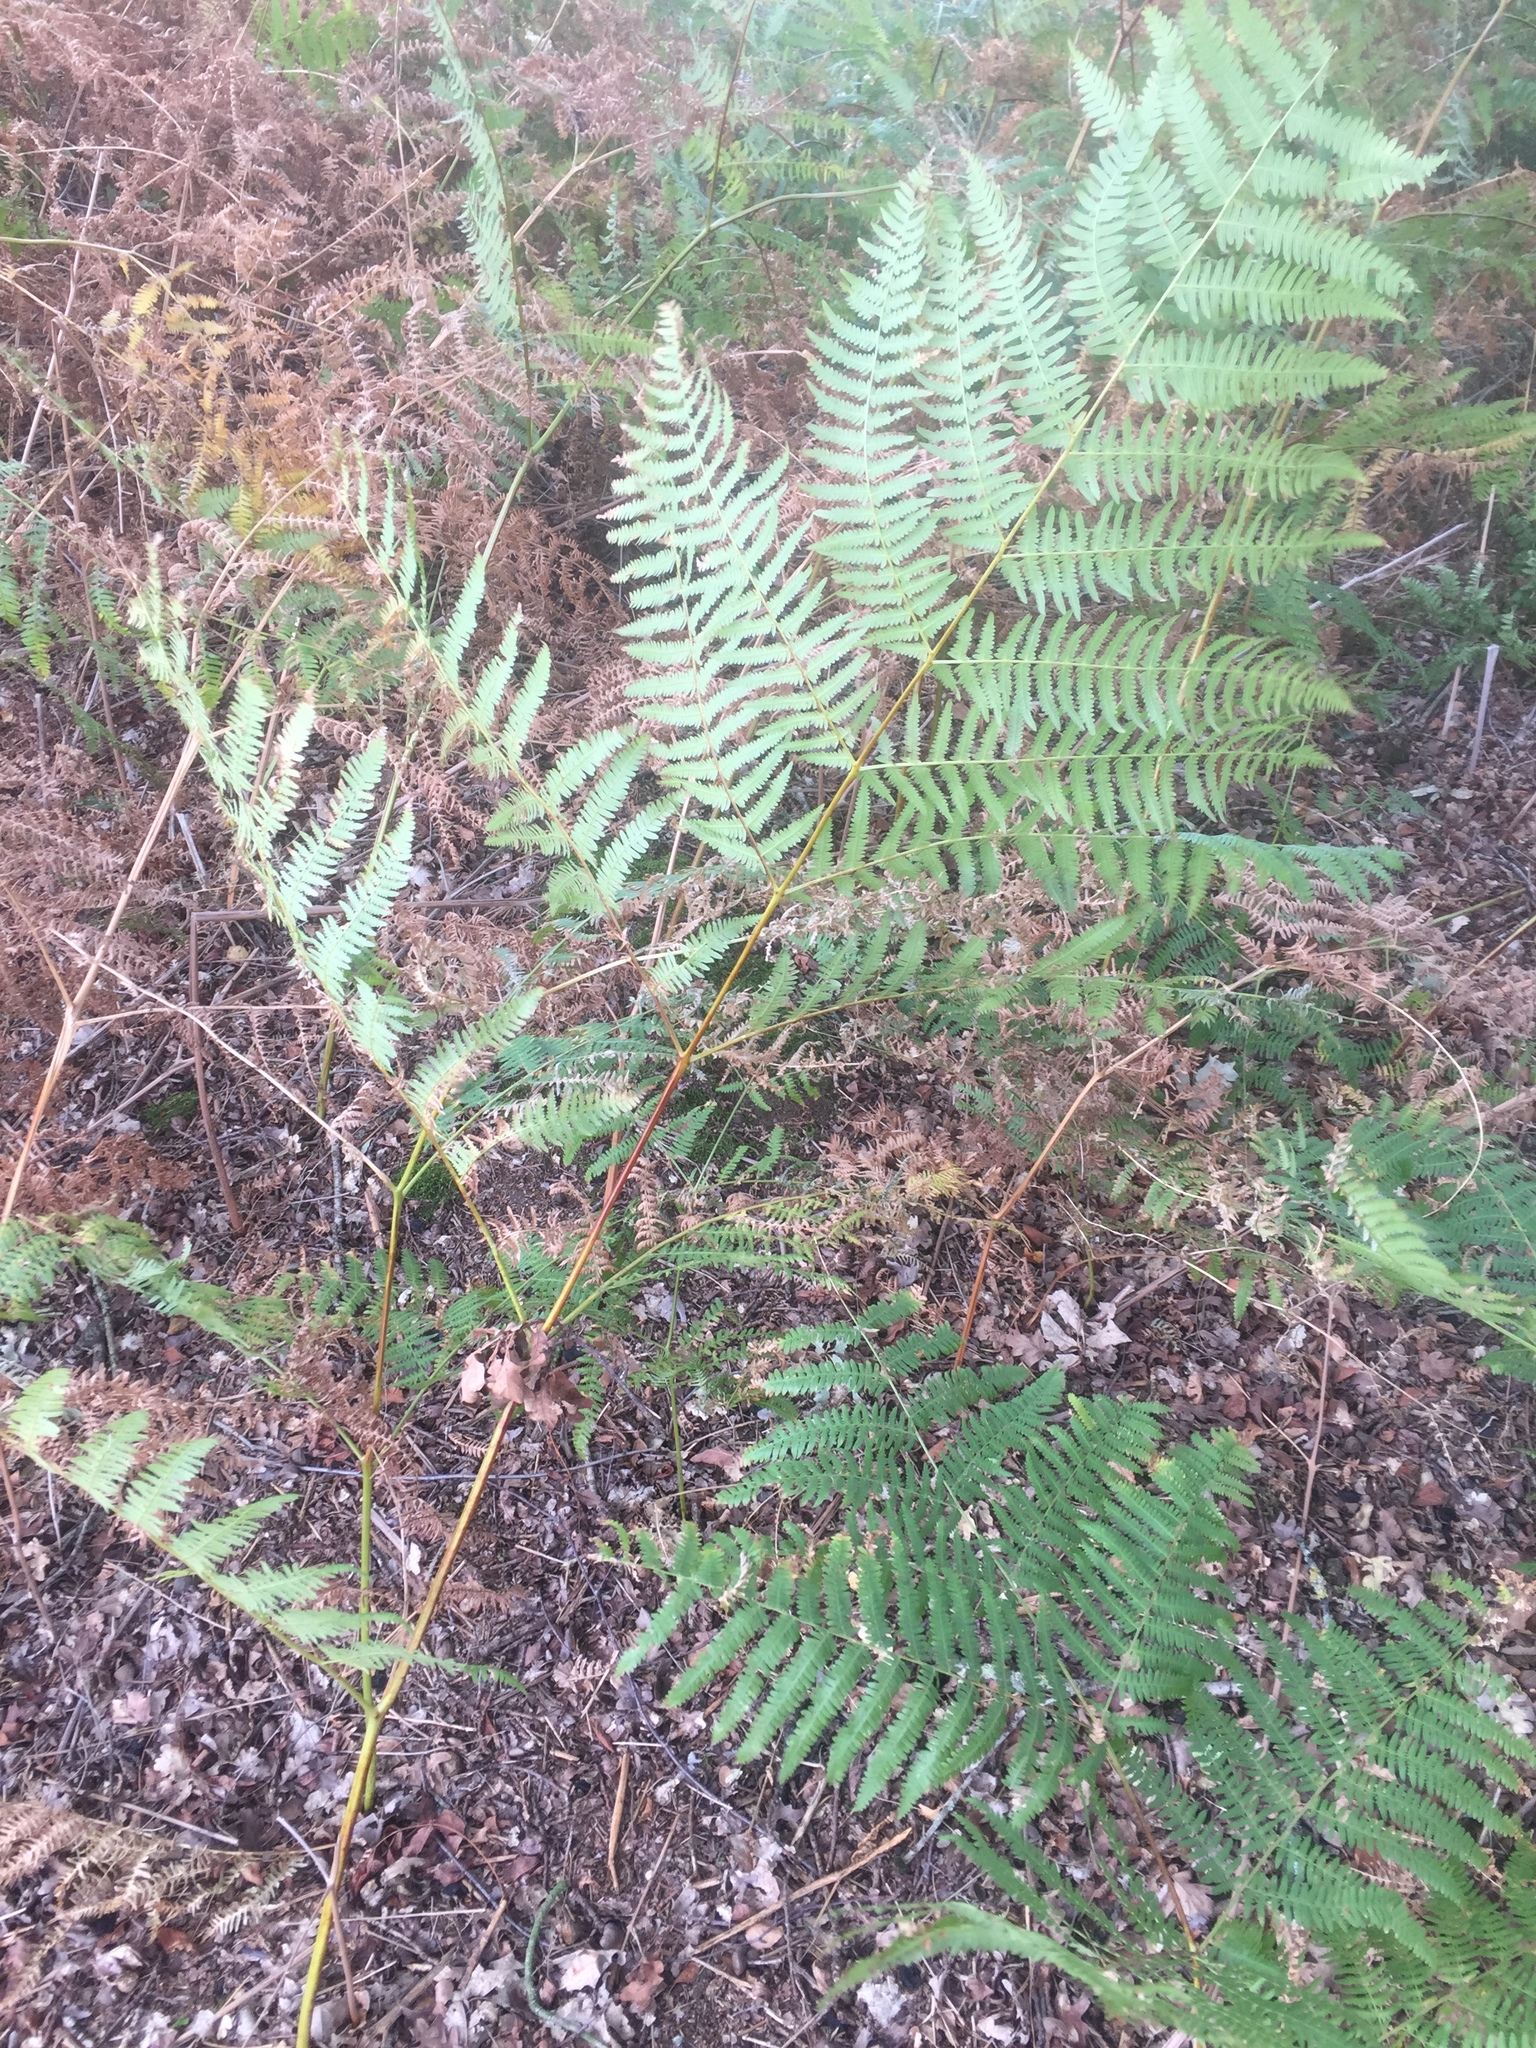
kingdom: Plantae
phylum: Tracheophyta
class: Polypodiopsida
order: Polypodiales
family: Dennstaedtiaceae
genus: Pteridium
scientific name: Pteridium aquilinum
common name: Bracken
